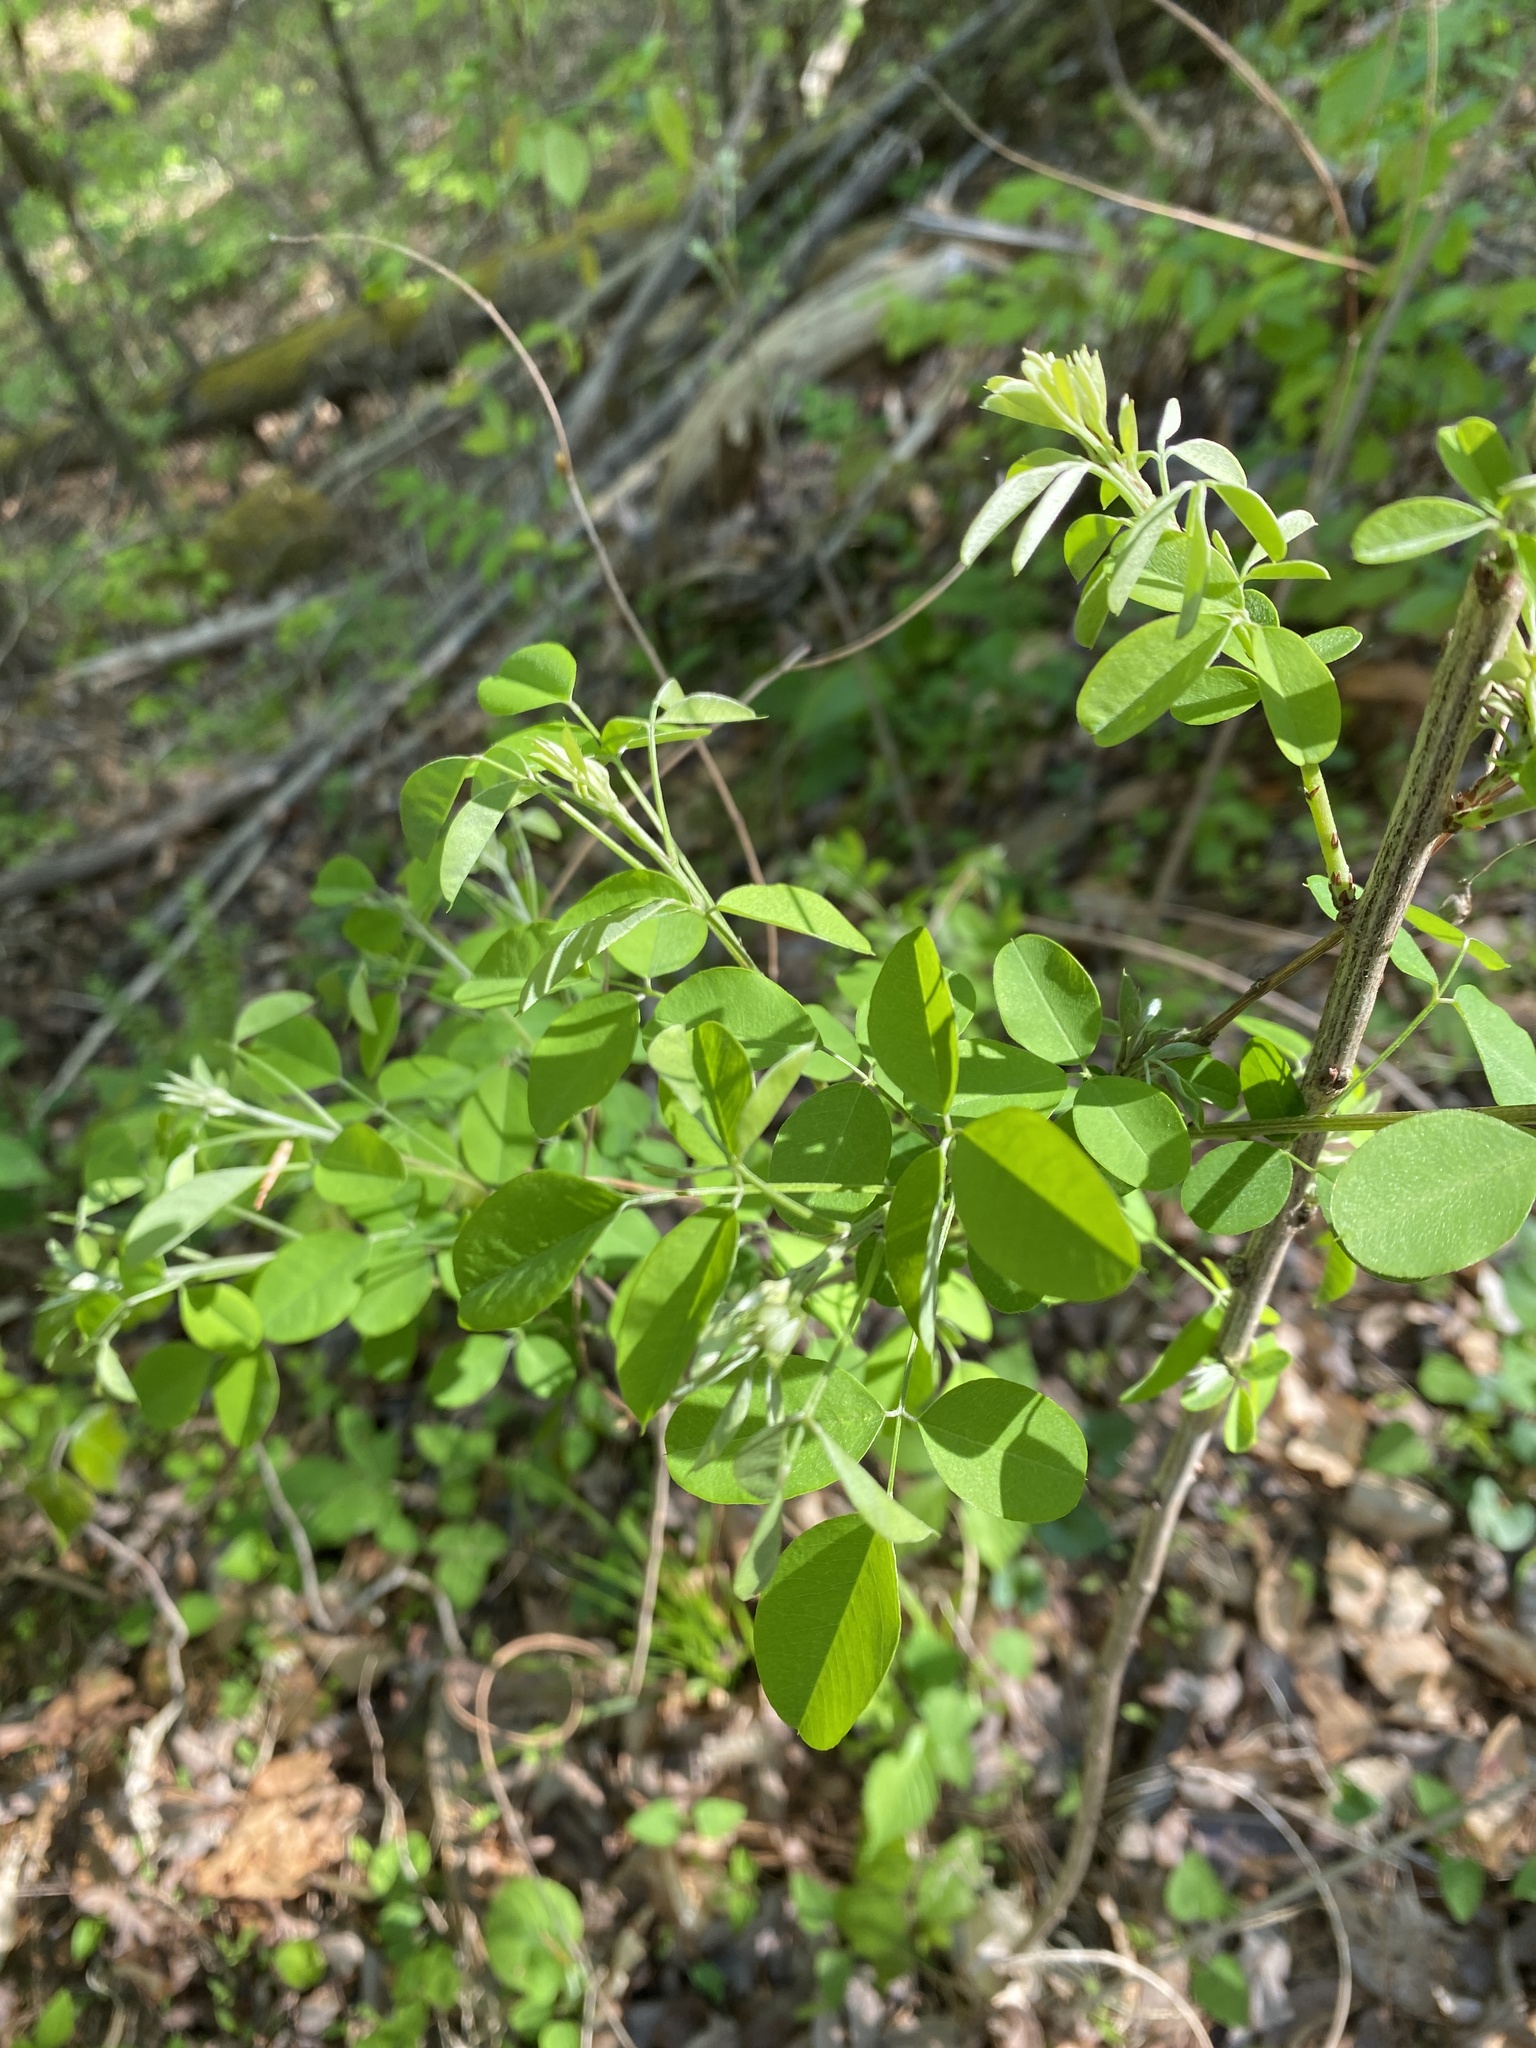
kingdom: Plantae
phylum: Tracheophyta
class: Magnoliopsida
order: Fabales
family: Fabaceae
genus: Lespedeza
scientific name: Lespedeza bicolor
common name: Shrub lespedeza
